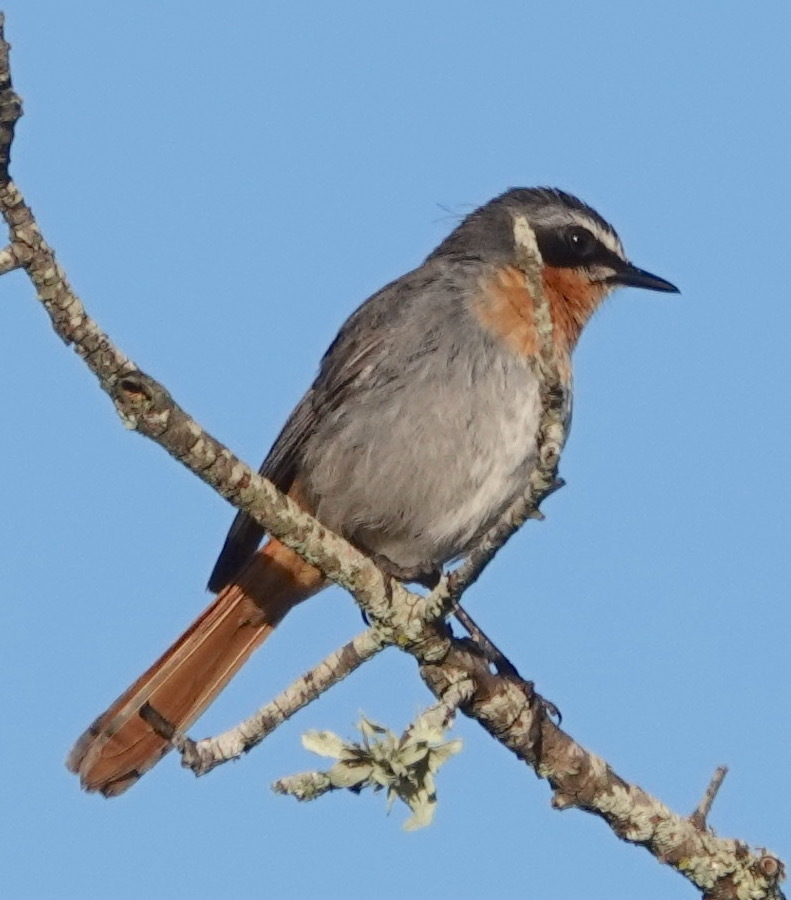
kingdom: Animalia
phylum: Chordata
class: Aves
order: Passeriformes
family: Muscicapidae
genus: Cossypha
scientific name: Cossypha caffra
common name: Cape robin-chat
